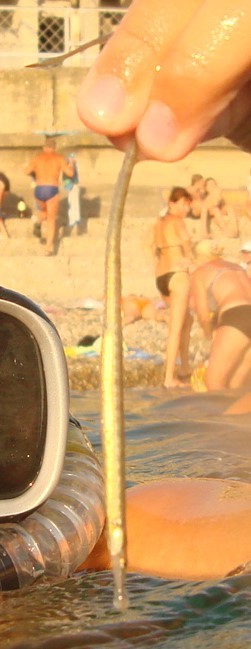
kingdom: Animalia
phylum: Chordata
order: Syngnathiformes
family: Syngnathidae
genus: Syngnathus
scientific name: Syngnathus
